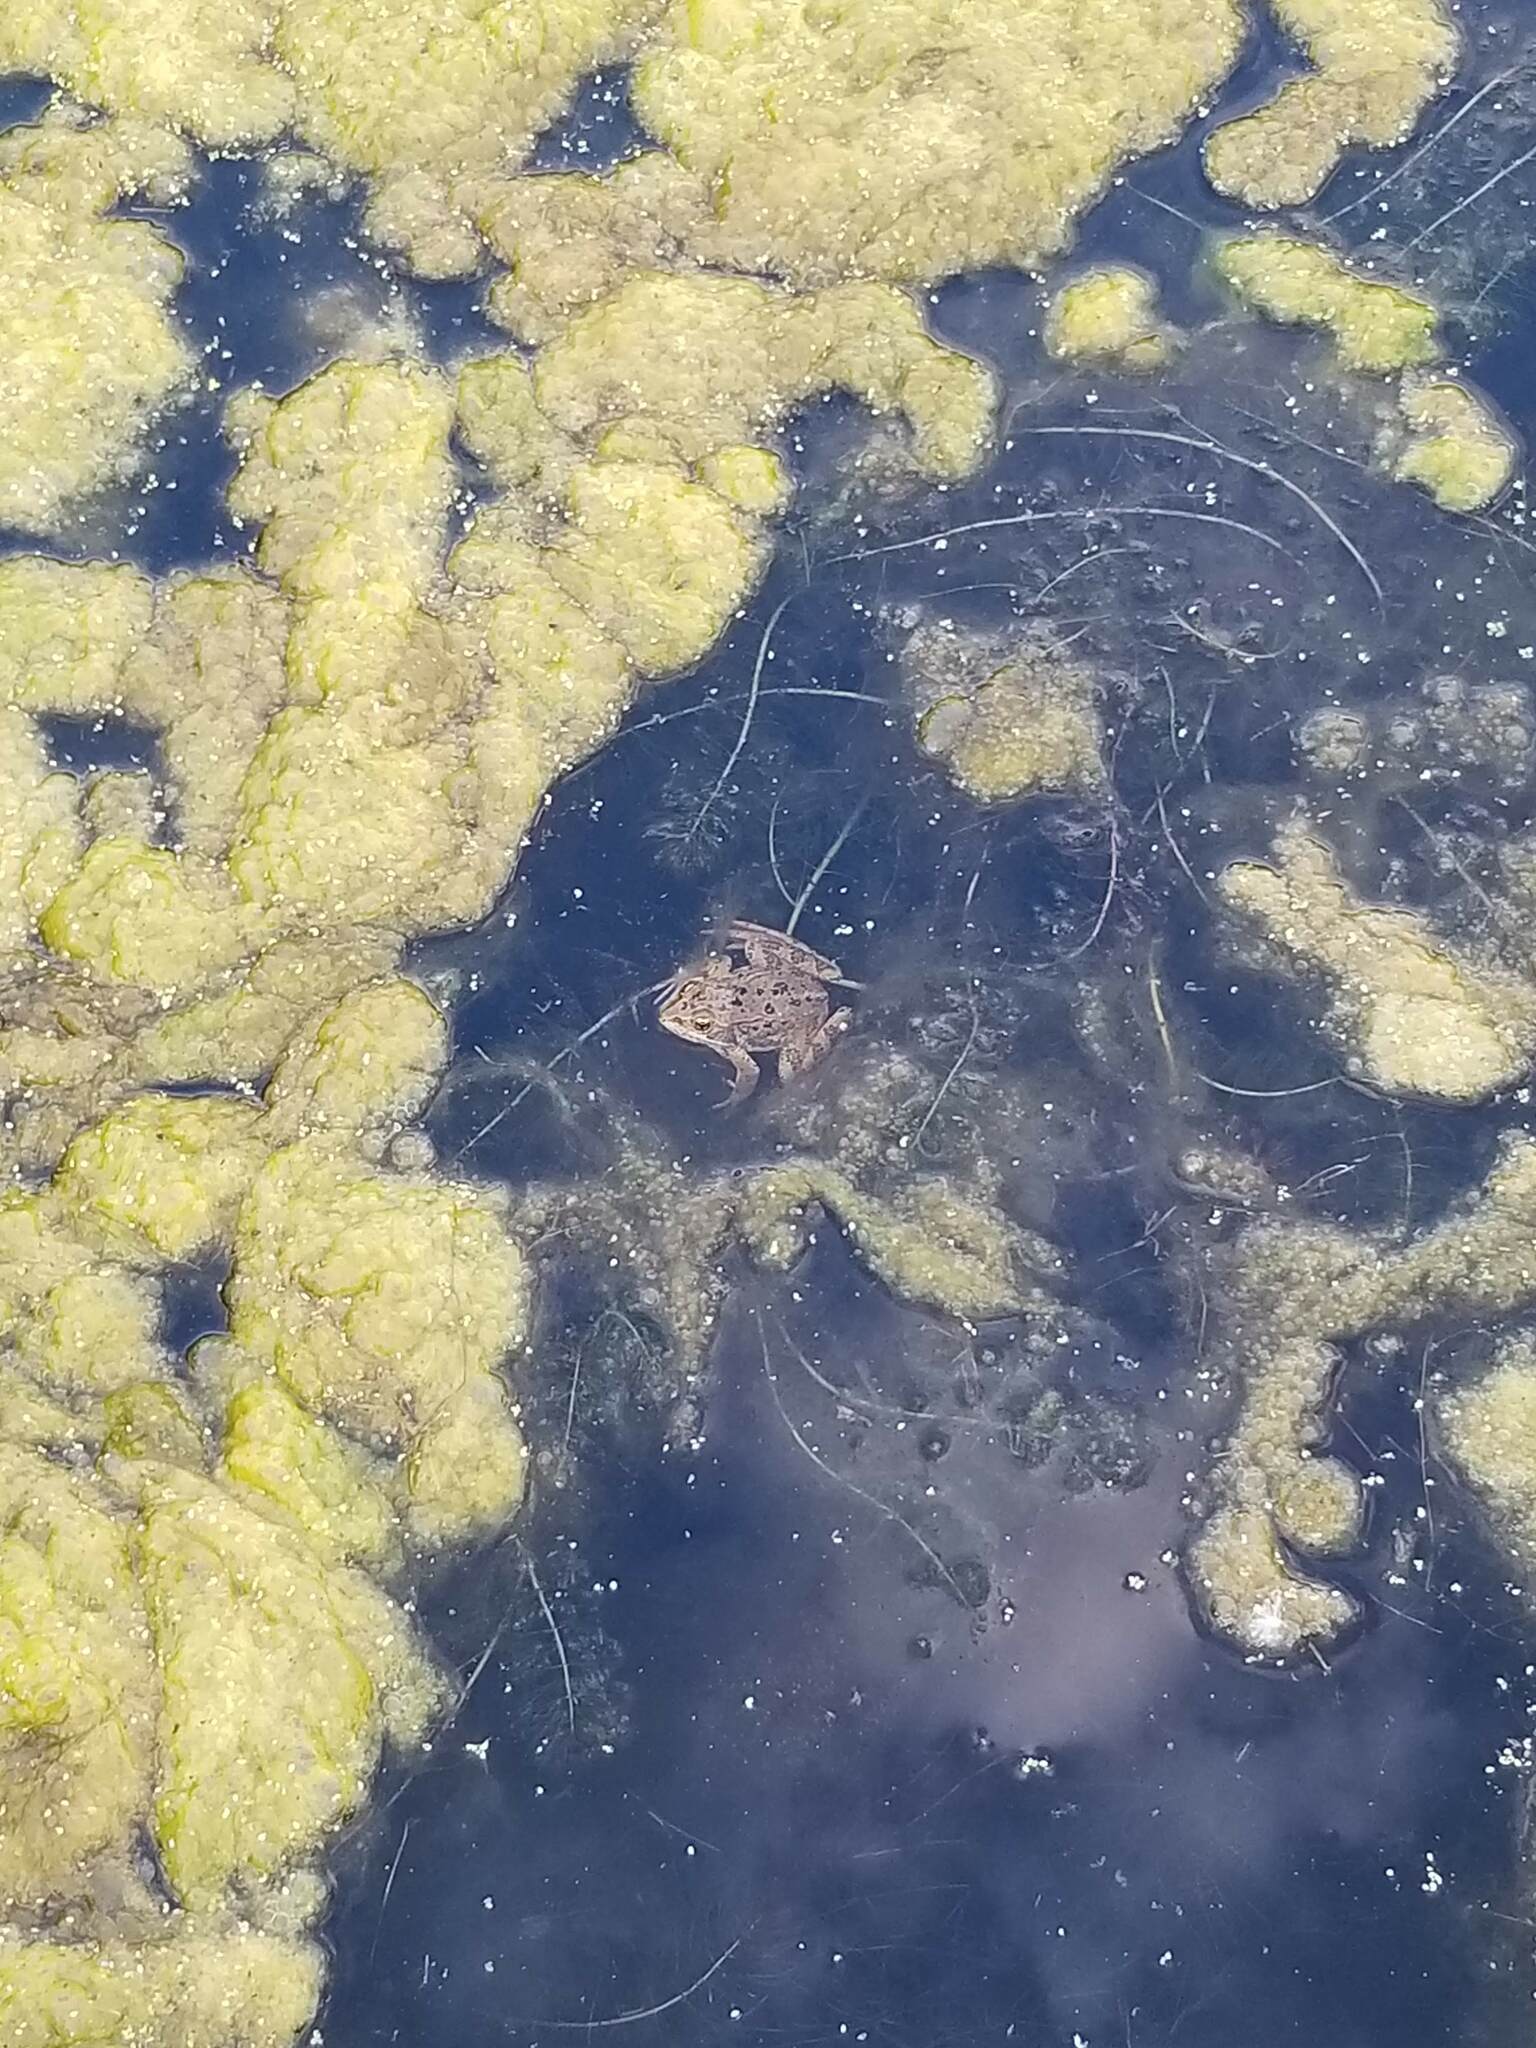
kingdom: Animalia
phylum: Chordata
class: Amphibia
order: Anura
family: Ranidae
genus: Rana
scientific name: Rana luteiventris
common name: Columbia spotted frog
